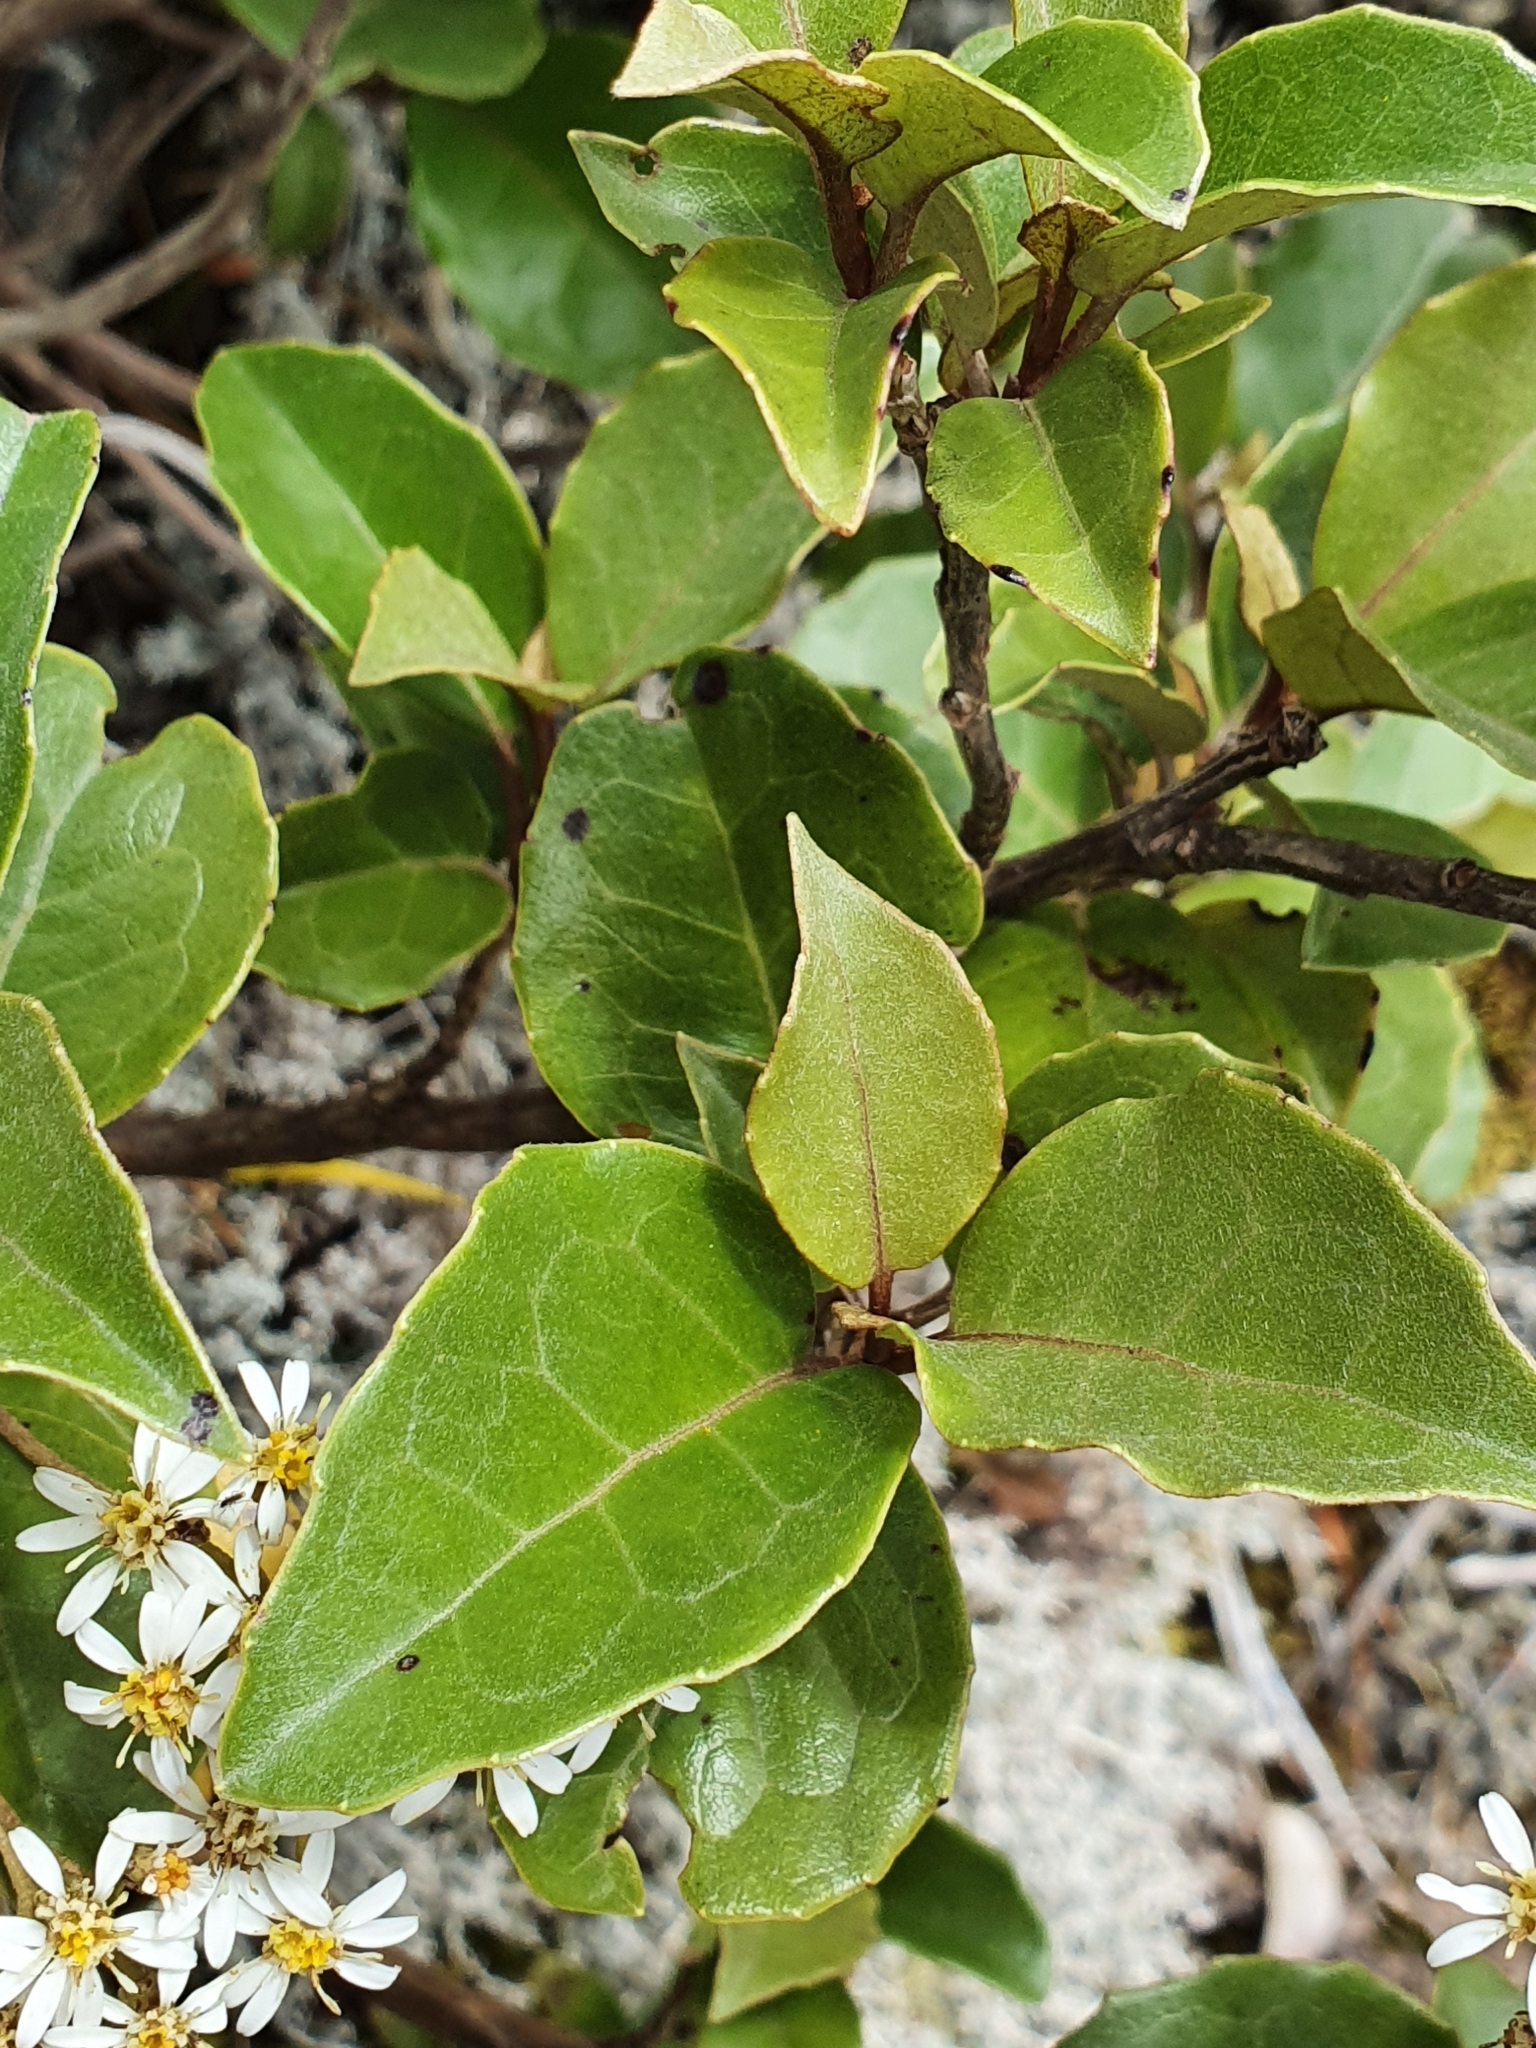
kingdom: Plantae
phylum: Tracheophyta
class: Magnoliopsida
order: Asterales
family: Asteraceae
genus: Olearia
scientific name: Olearia arborescens
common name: Glossy tree daisy
